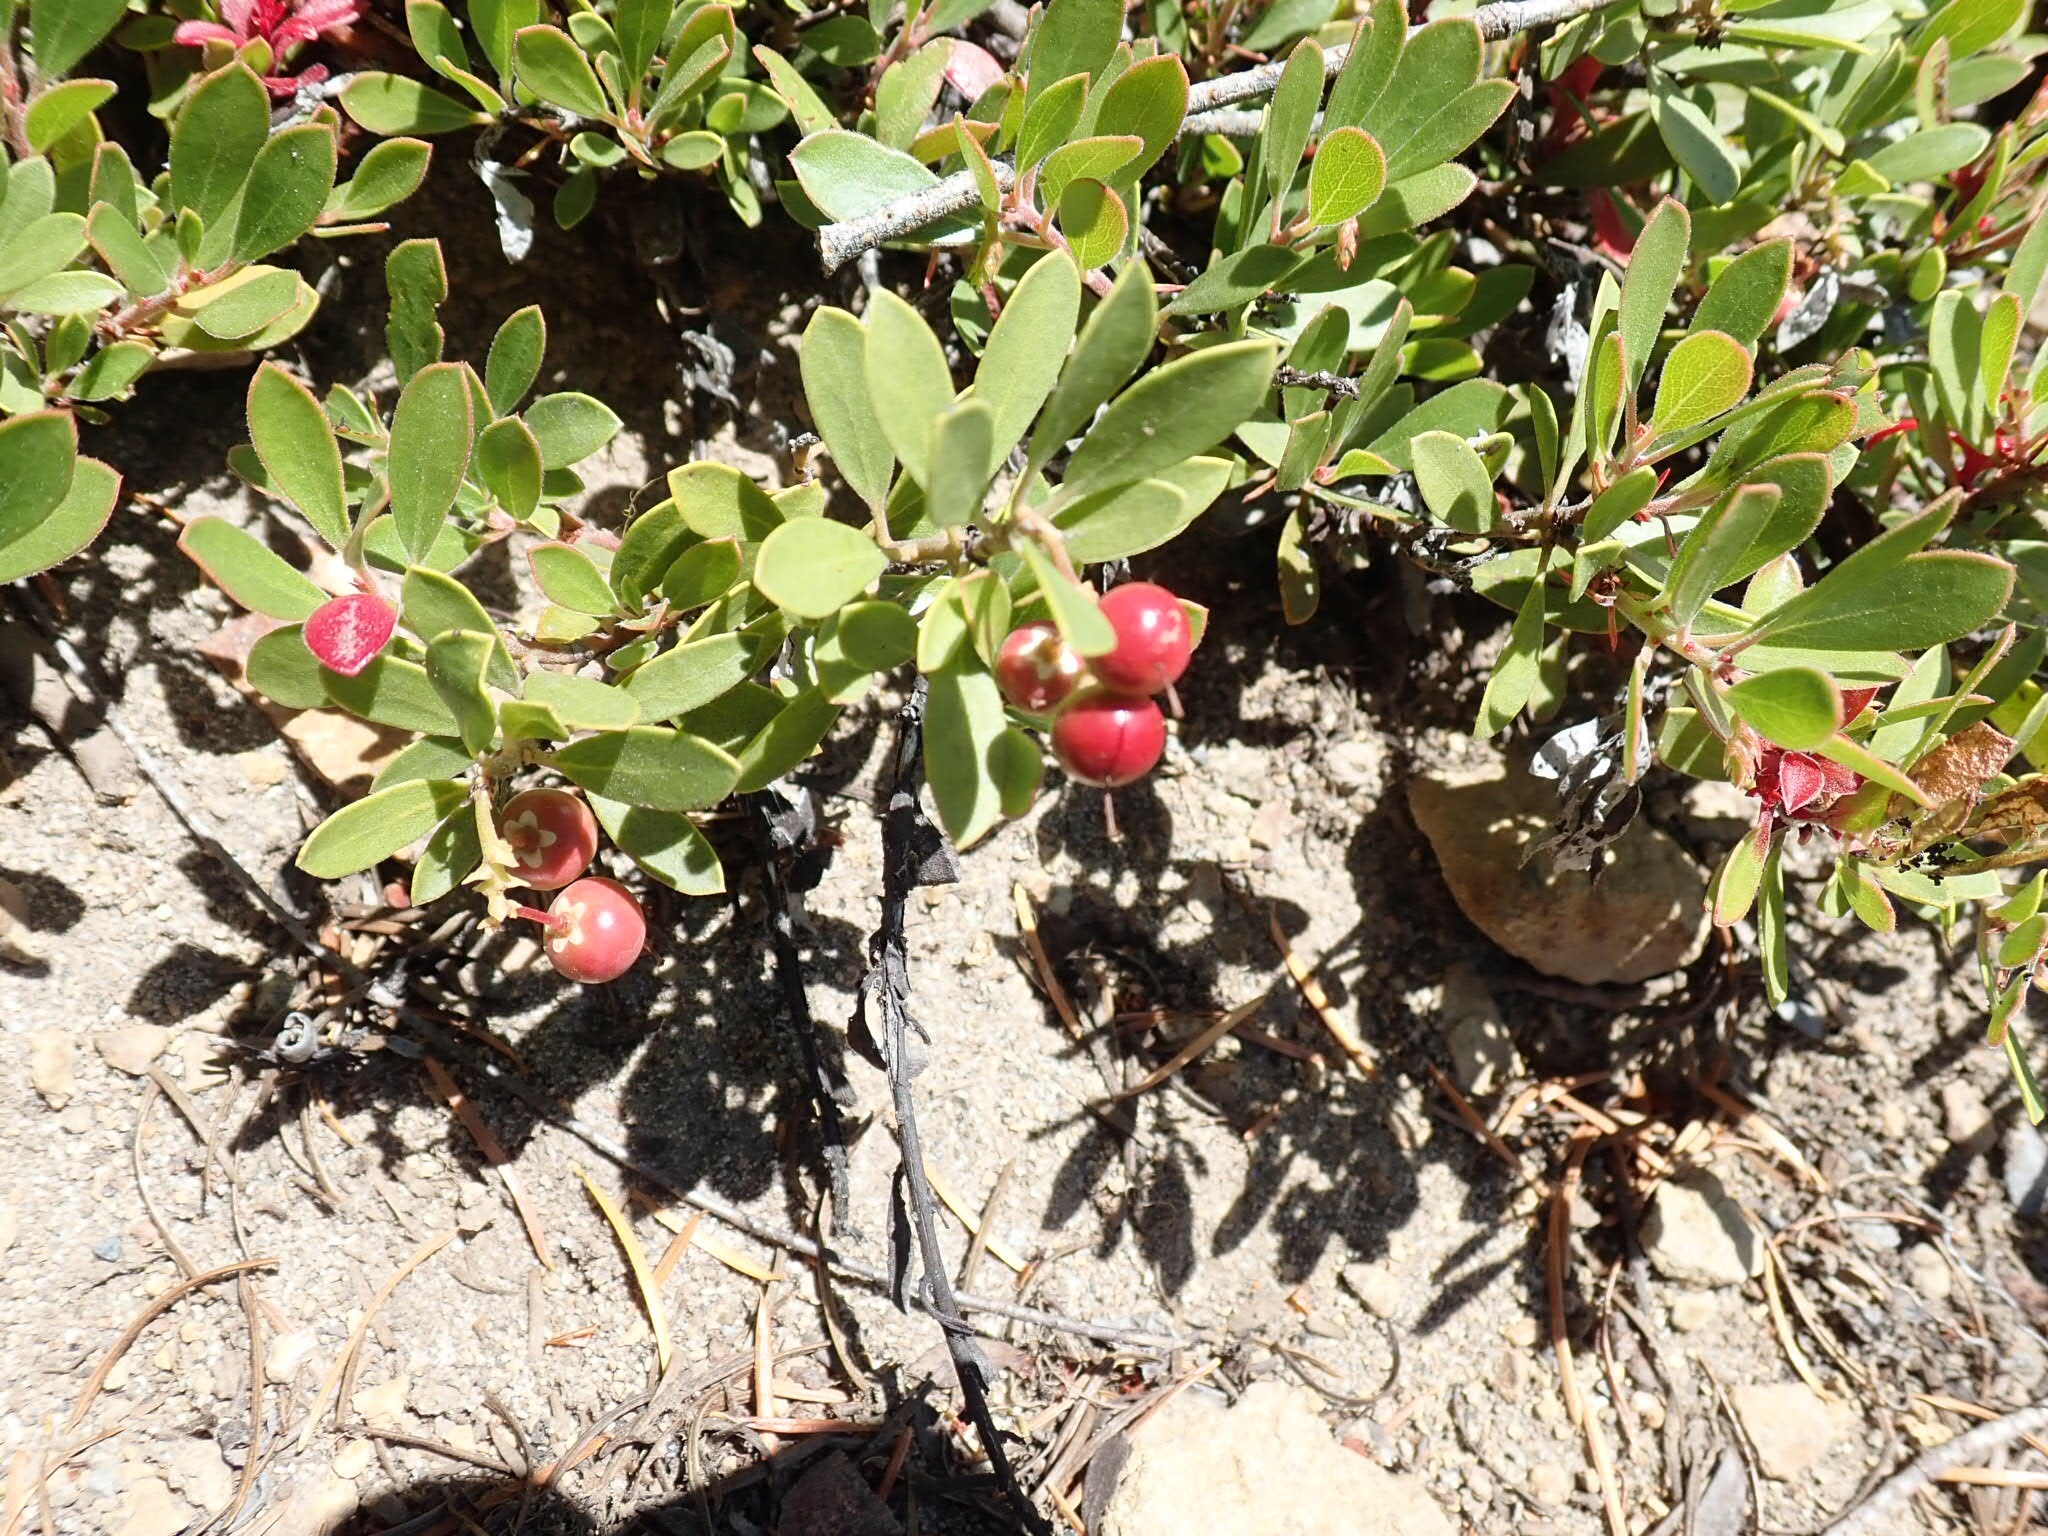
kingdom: Plantae
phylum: Tracheophyta
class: Magnoliopsida
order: Ericales
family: Ericaceae
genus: Arctostaphylos
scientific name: Arctostaphylos nevadensis
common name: Pinemat manzanita
